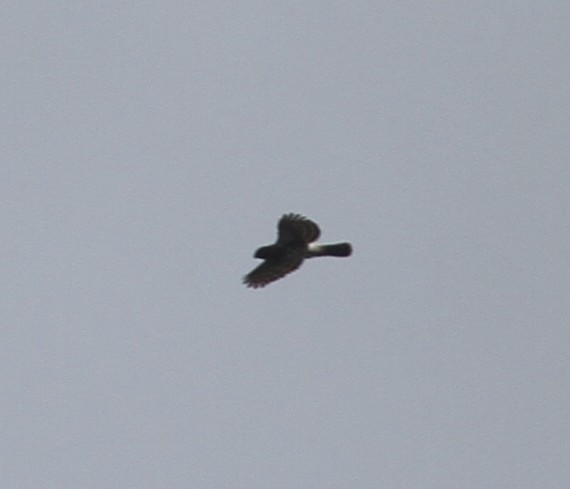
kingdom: Animalia
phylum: Chordata
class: Aves
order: Accipitriformes
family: Accipitridae
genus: Accipiter
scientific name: Accipiter trivirgatus
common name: Crested goshawk
